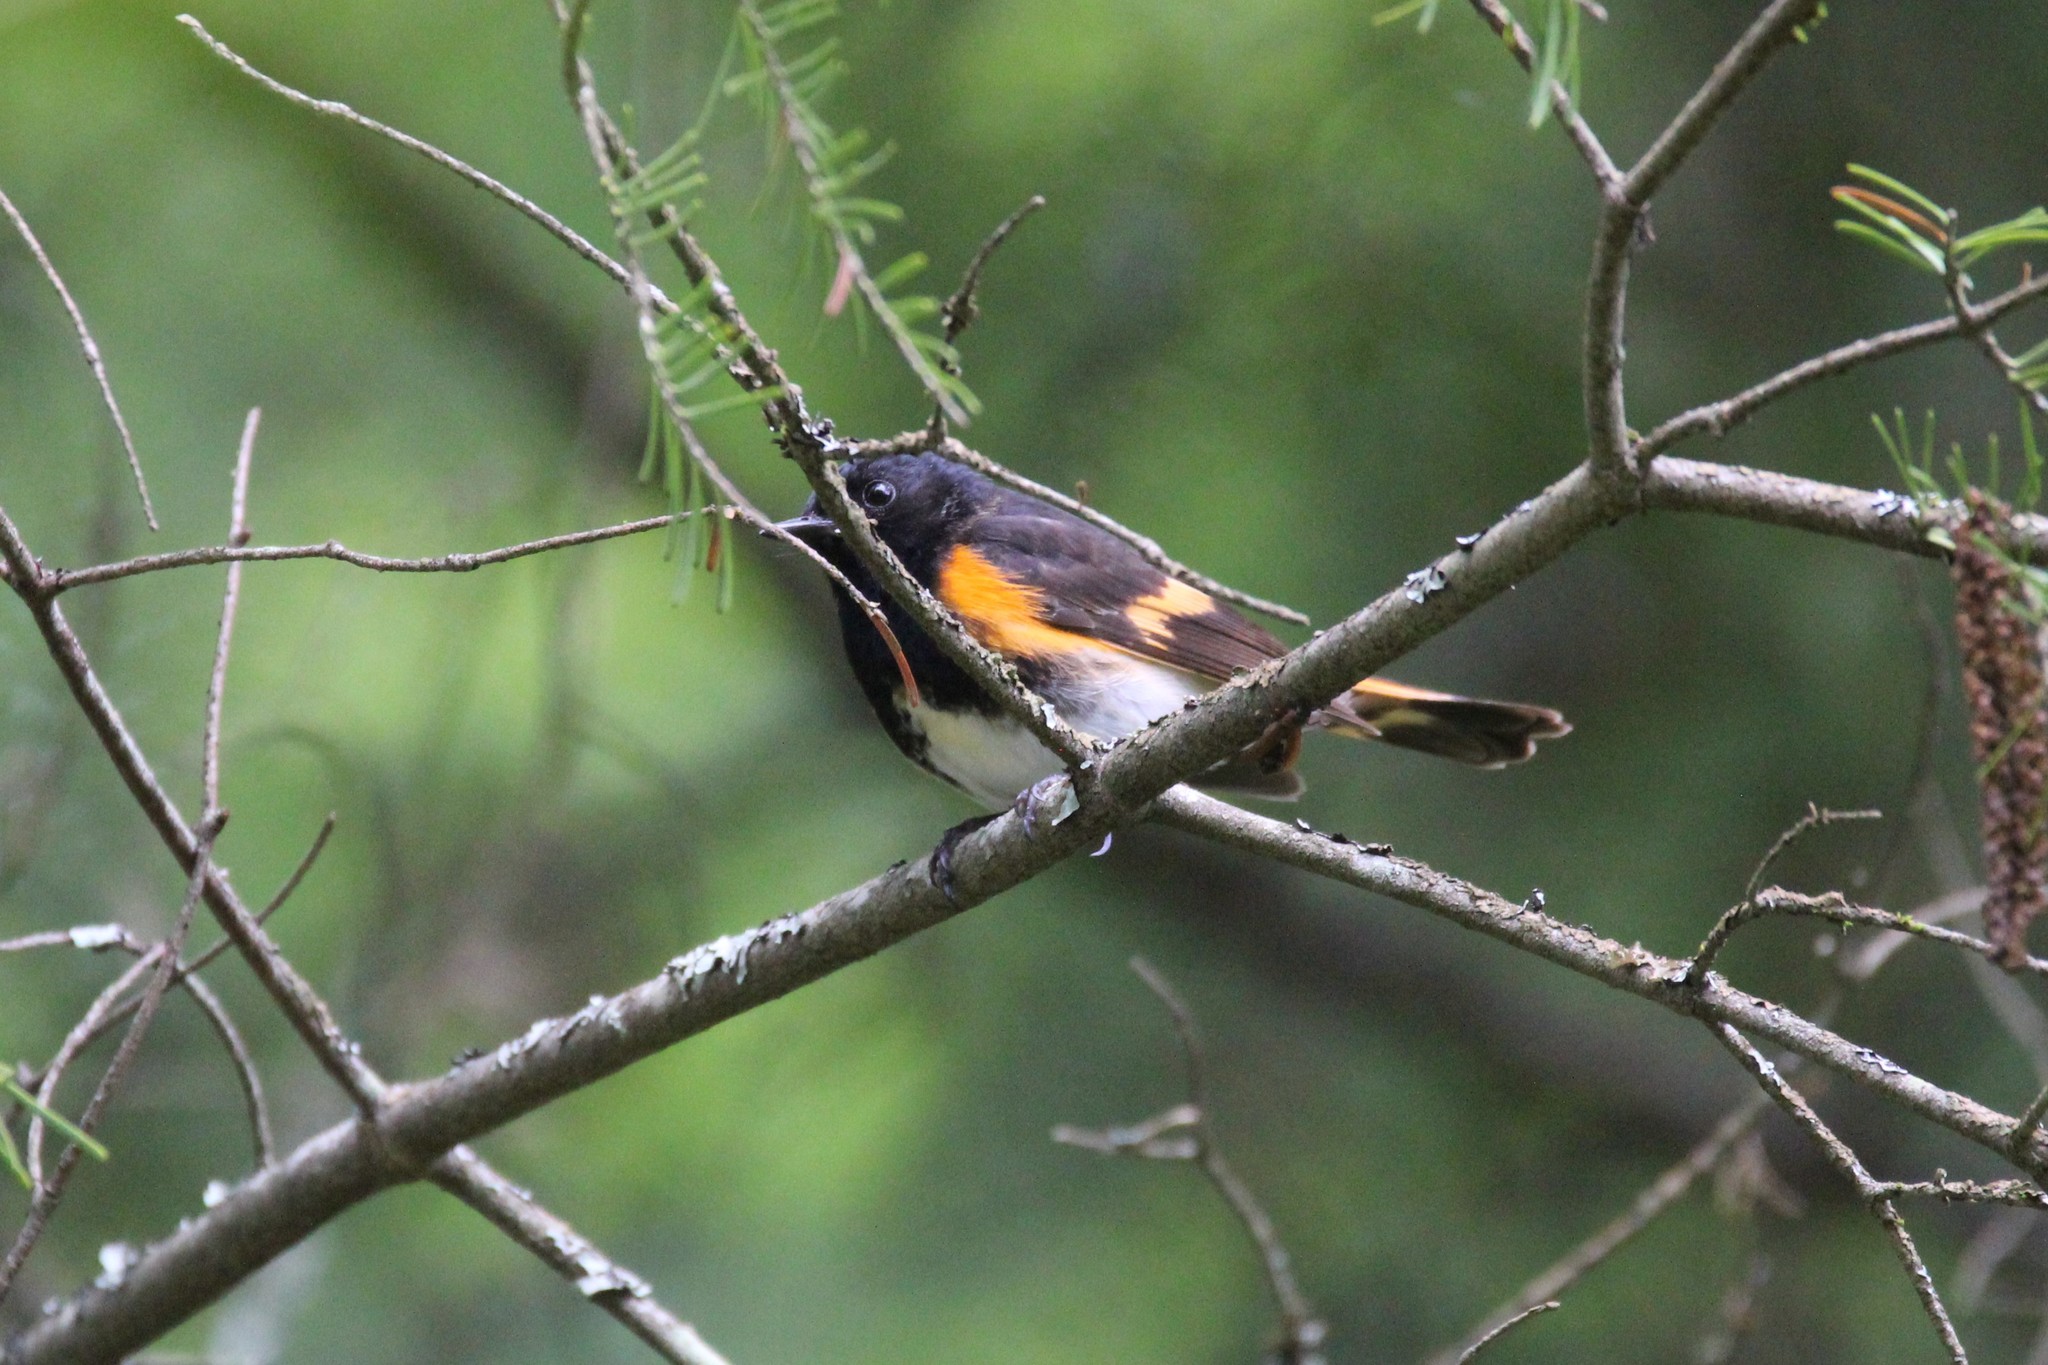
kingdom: Animalia
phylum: Chordata
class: Aves
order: Passeriformes
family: Parulidae
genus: Setophaga
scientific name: Setophaga ruticilla
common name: American redstart
